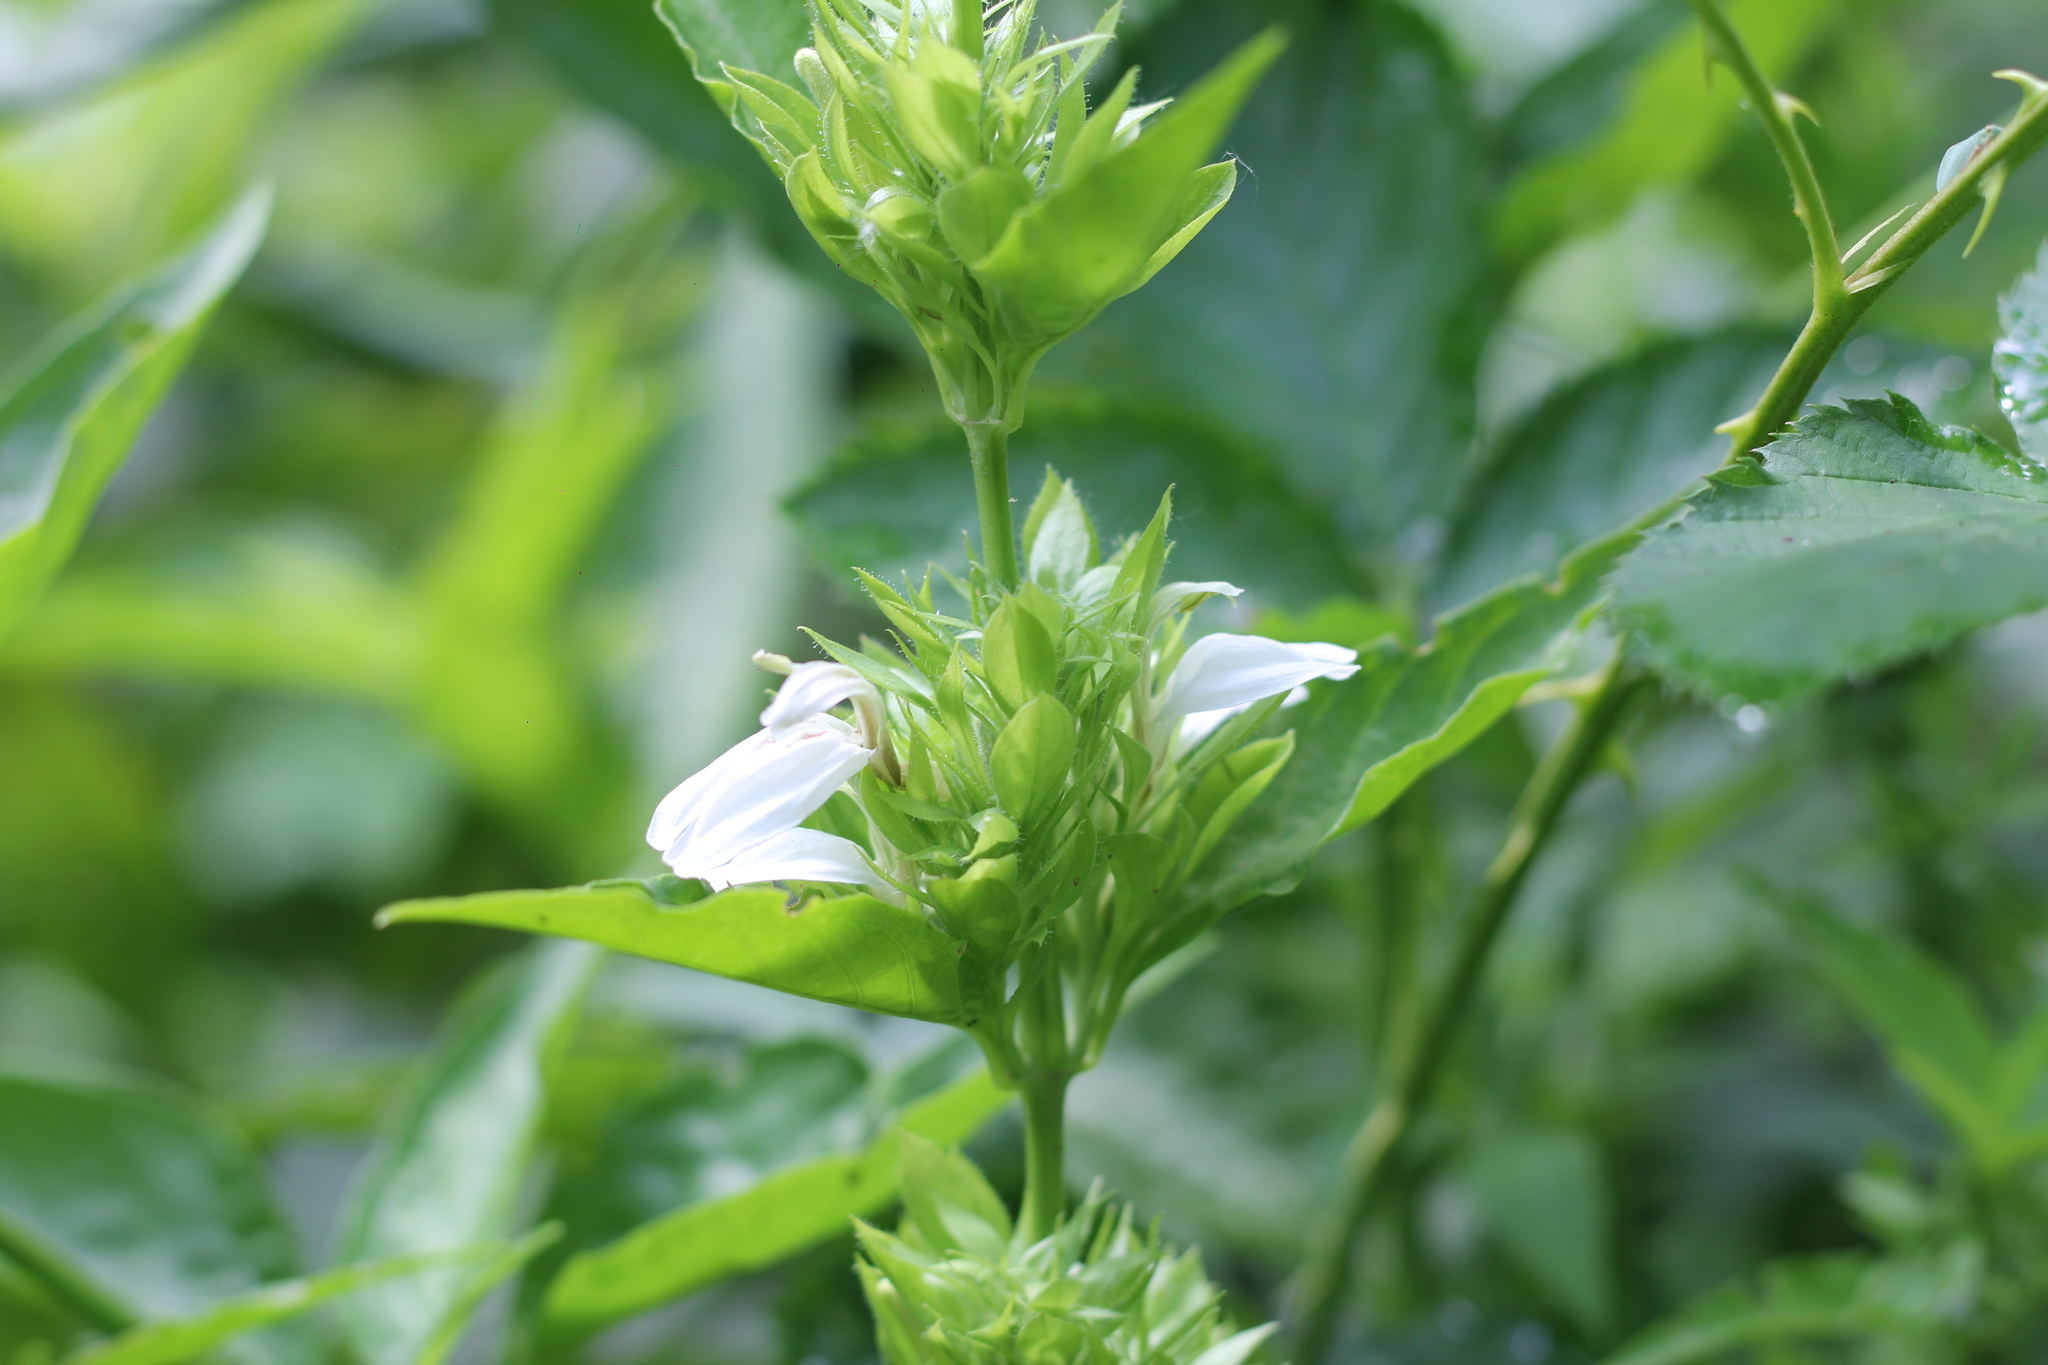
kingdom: Plantae
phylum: Tracheophyta
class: Magnoliopsida
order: Lamiales
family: Acanthaceae
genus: Poikilacanthus
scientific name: Poikilacanthus glandulosus
